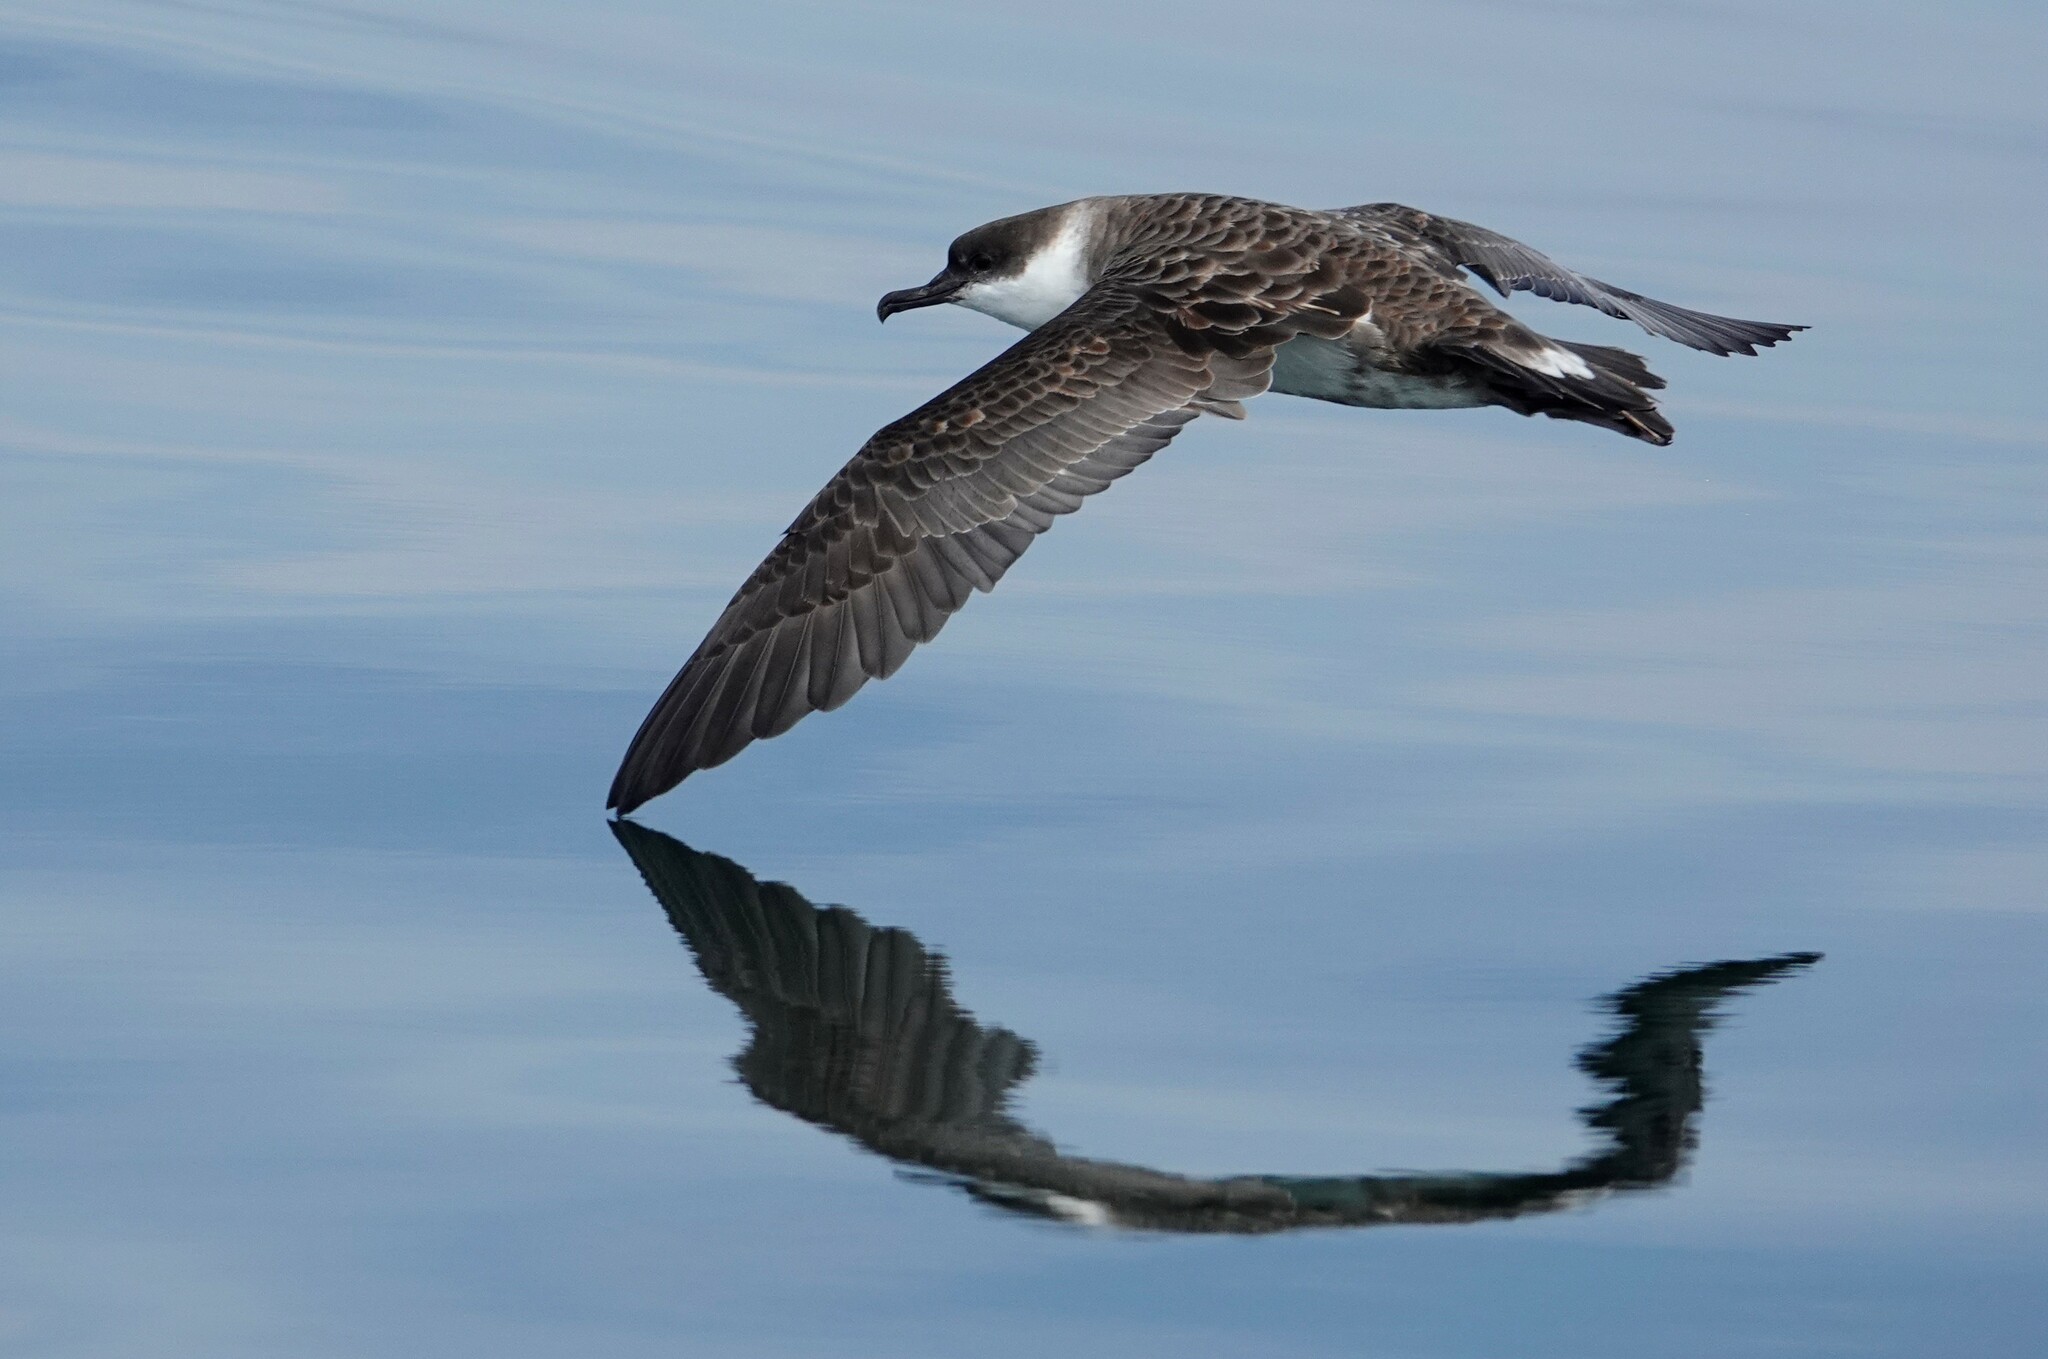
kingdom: Animalia
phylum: Chordata
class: Aves
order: Procellariiformes
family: Procellariidae
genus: Puffinus
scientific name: Puffinus gravis
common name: Great shearwater
